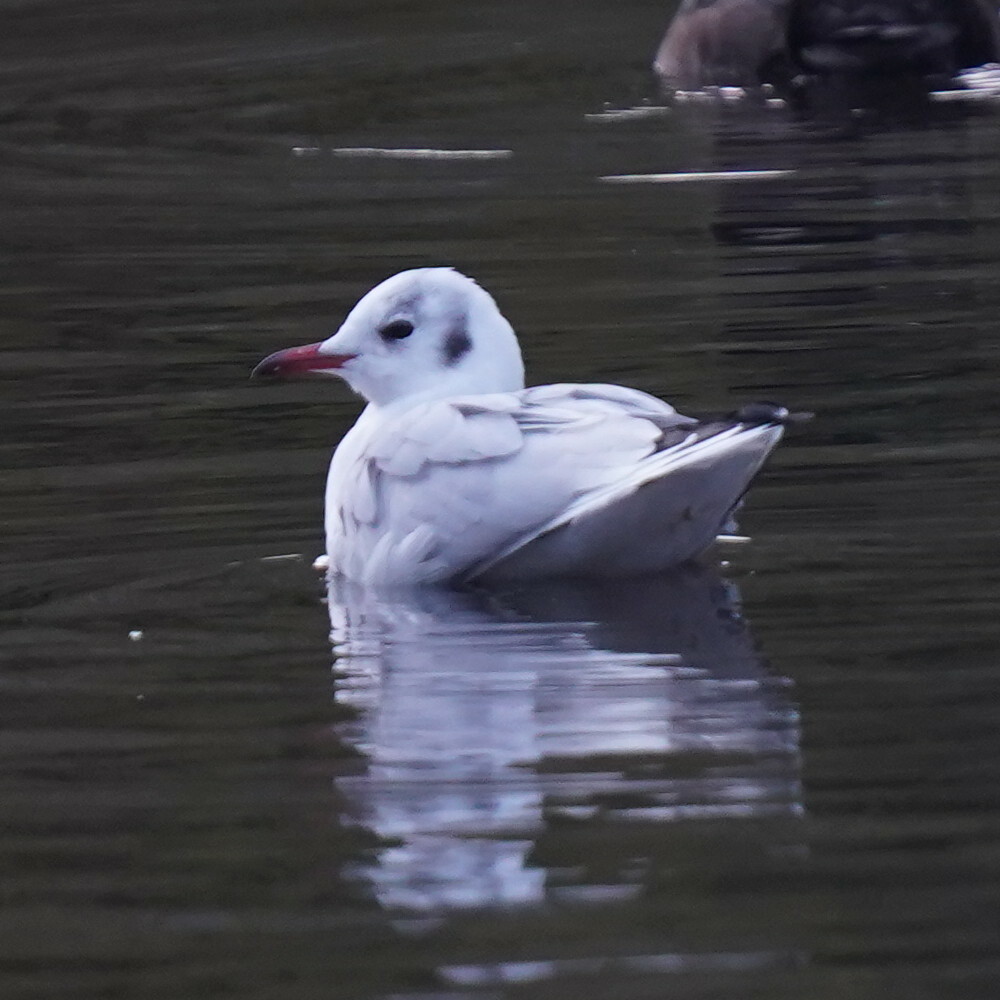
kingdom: Animalia
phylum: Chordata
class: Aves
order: Charadriiformes
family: Laridae
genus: Chroicocephalus
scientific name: Chroicocephalus ridibundus
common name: Black-headed gull
